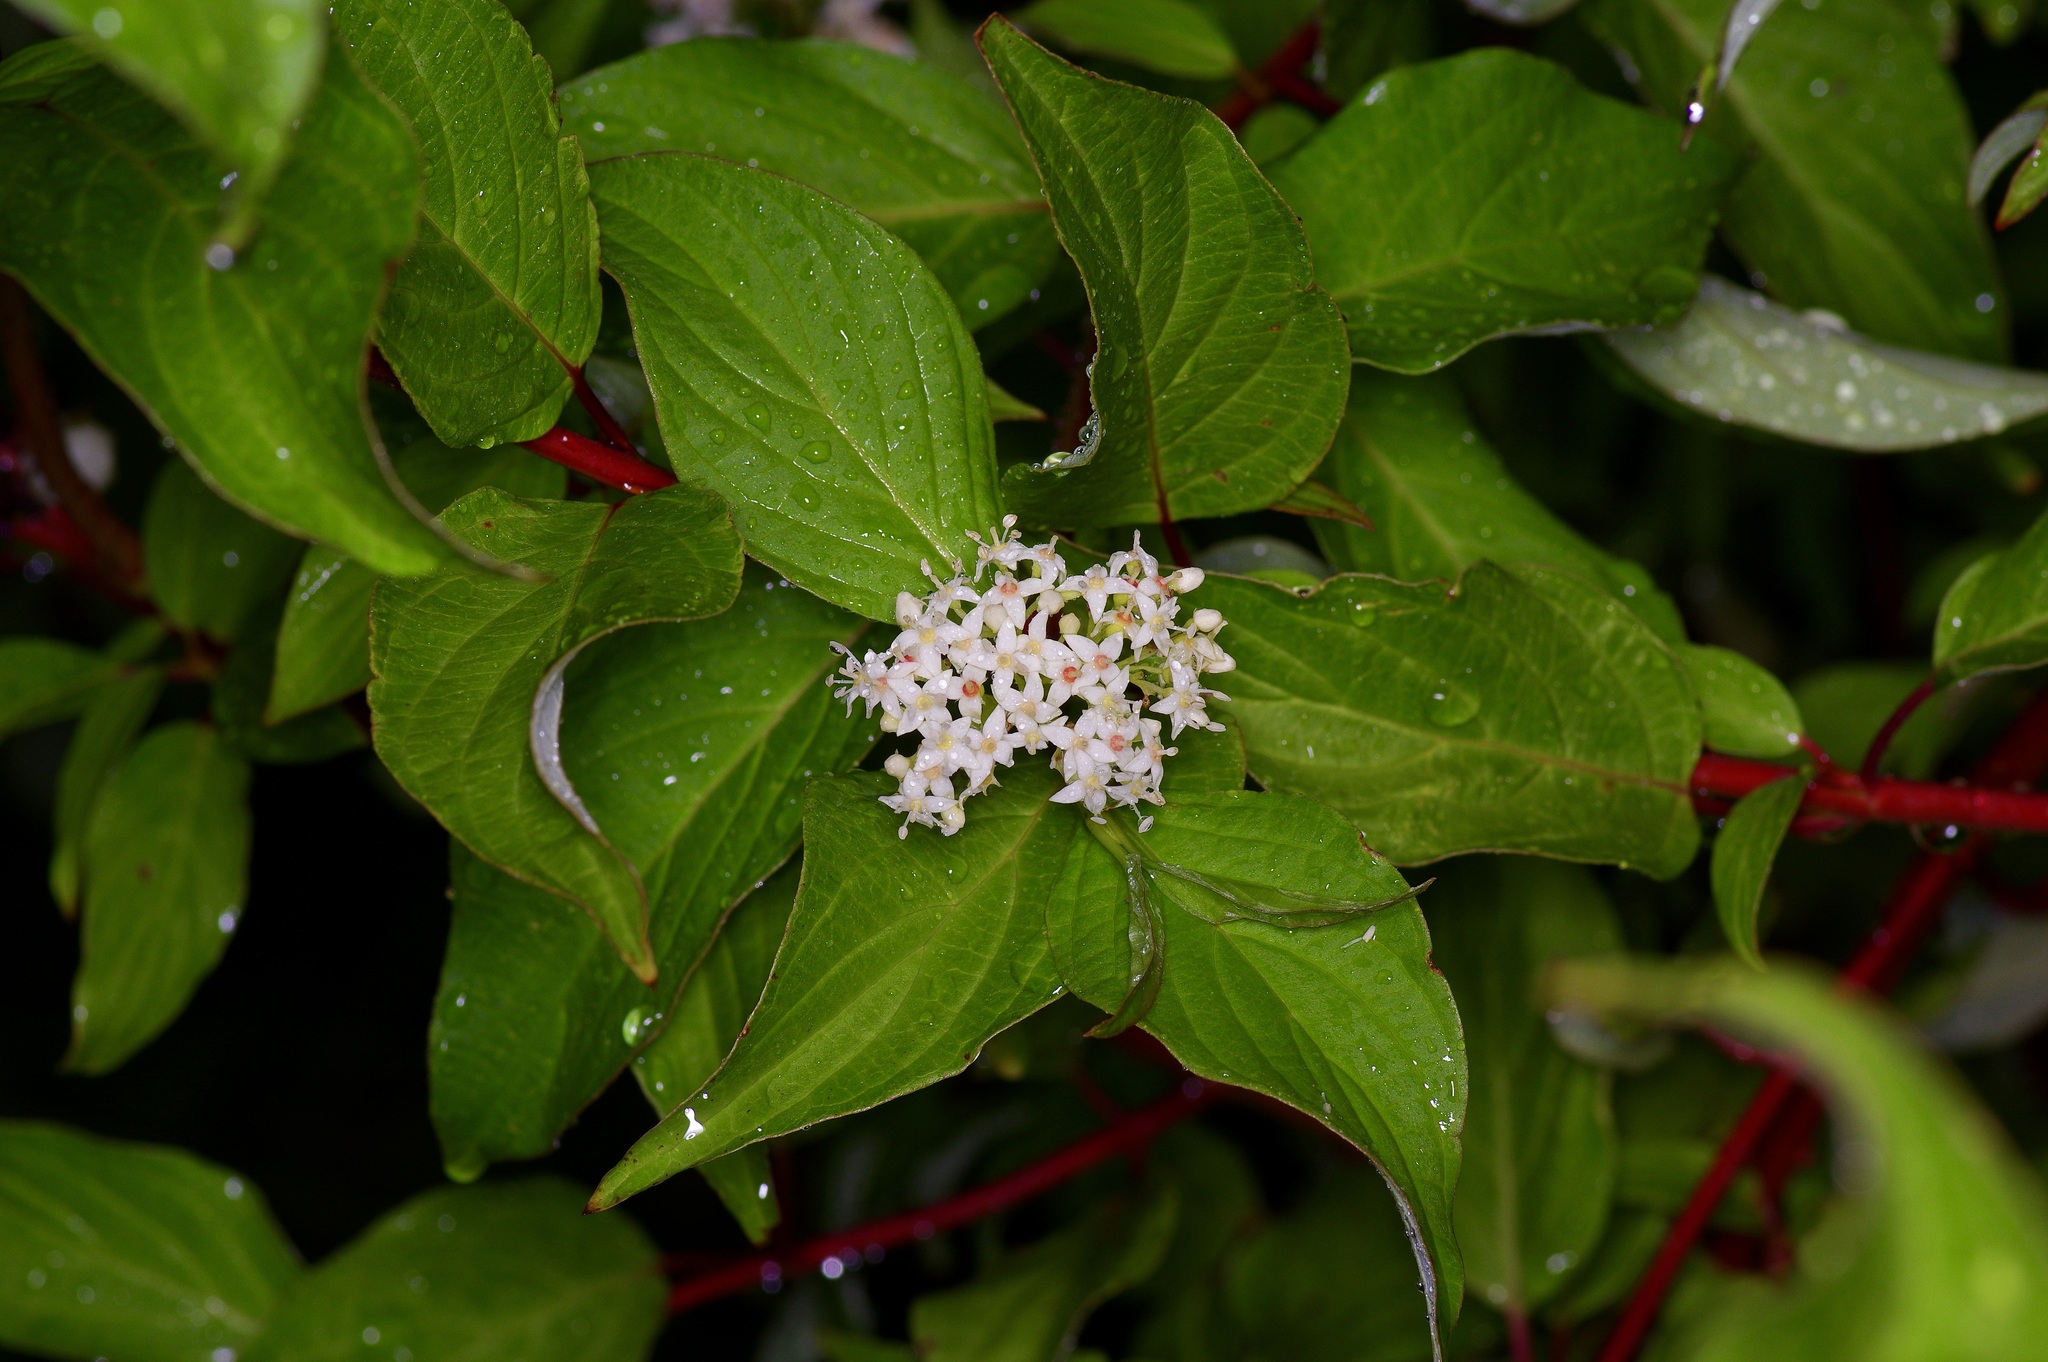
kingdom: Plantae
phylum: Tracheophyta
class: Magnoliopsida
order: Cornales
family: Cornaceae
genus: Cornus
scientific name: Cornus sericea
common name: Red-osier dogwood
